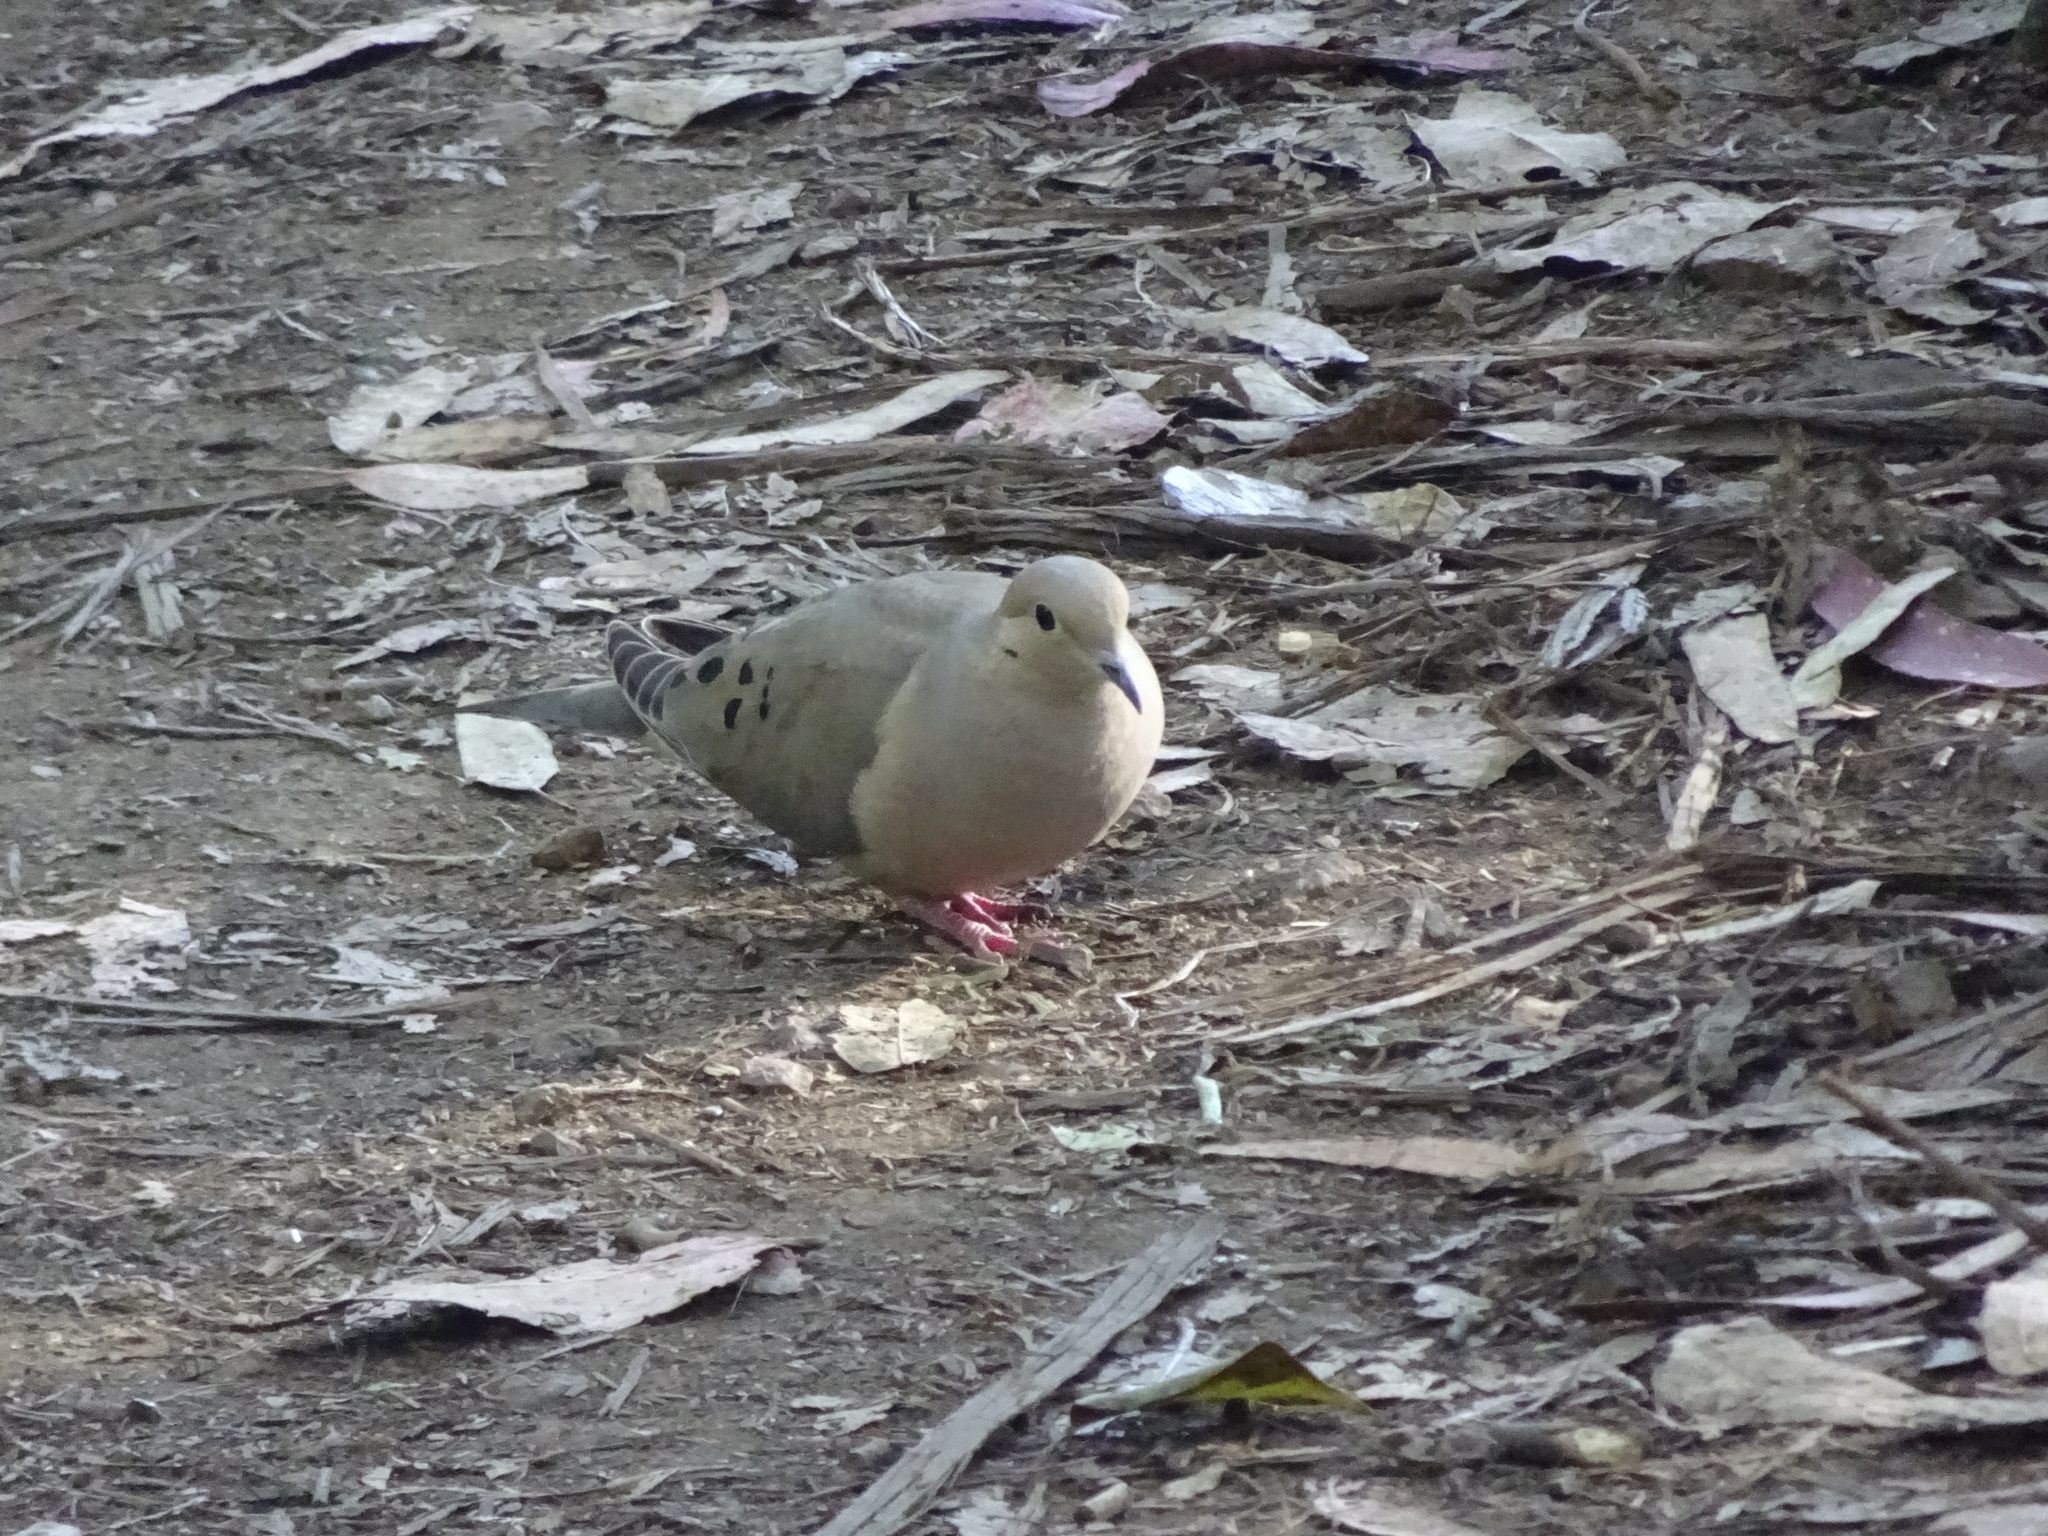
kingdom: Animalia
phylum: Chordata
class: Aves
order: Columbiformes
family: Columbidae
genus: Zenaida
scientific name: Zenaida macroura
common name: Mourning dove
